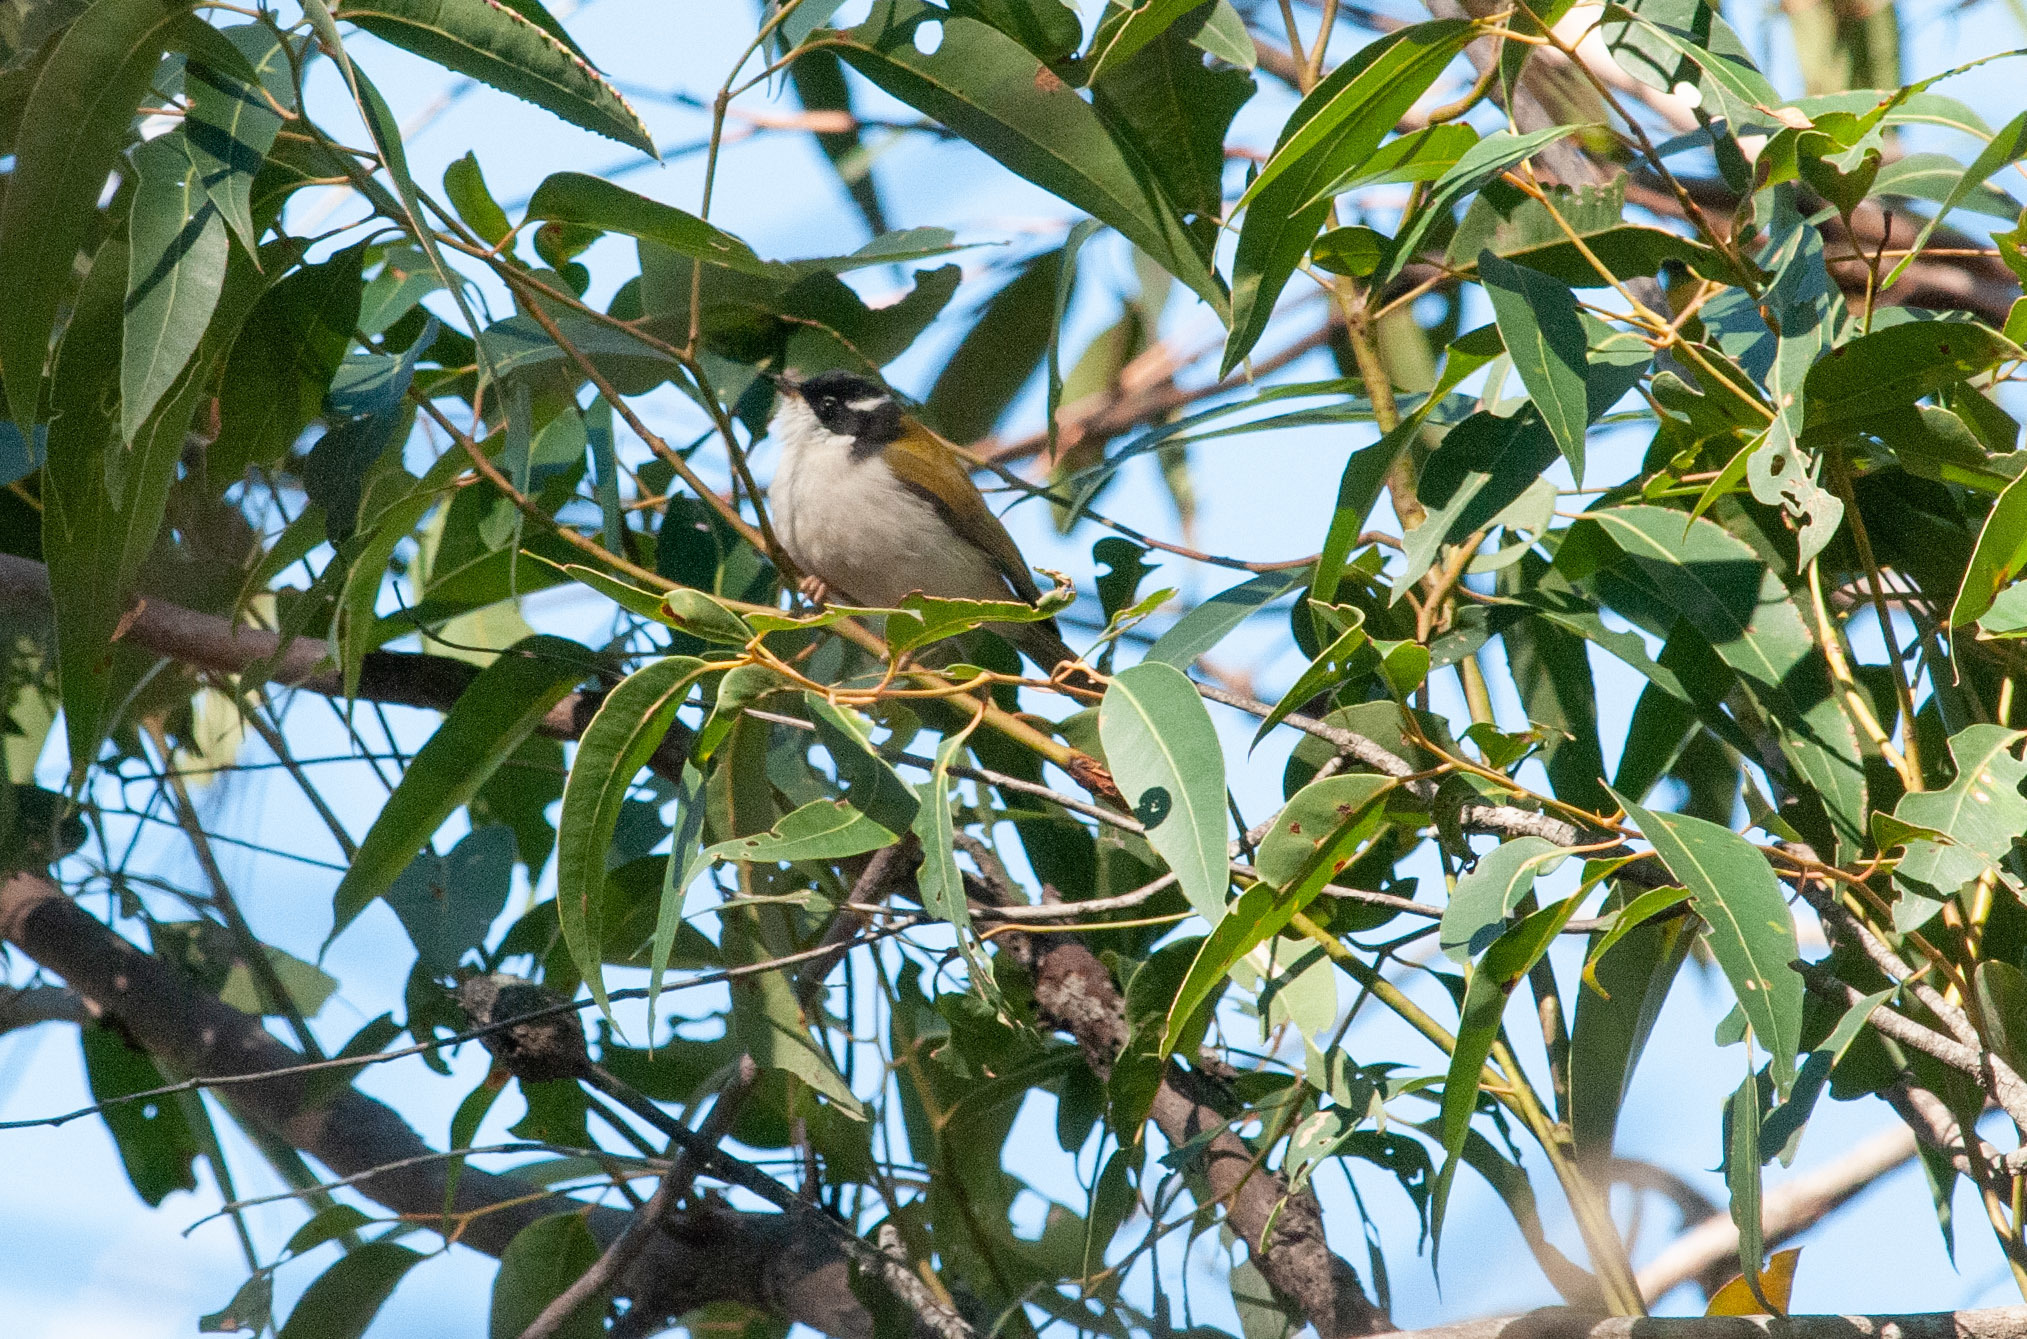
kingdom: Animalia
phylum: Chordata
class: Aves
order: Passeriformes
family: Meliphagidae
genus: Melithreptus
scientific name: Melithreptus lunatus
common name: White-naped honeyeater
